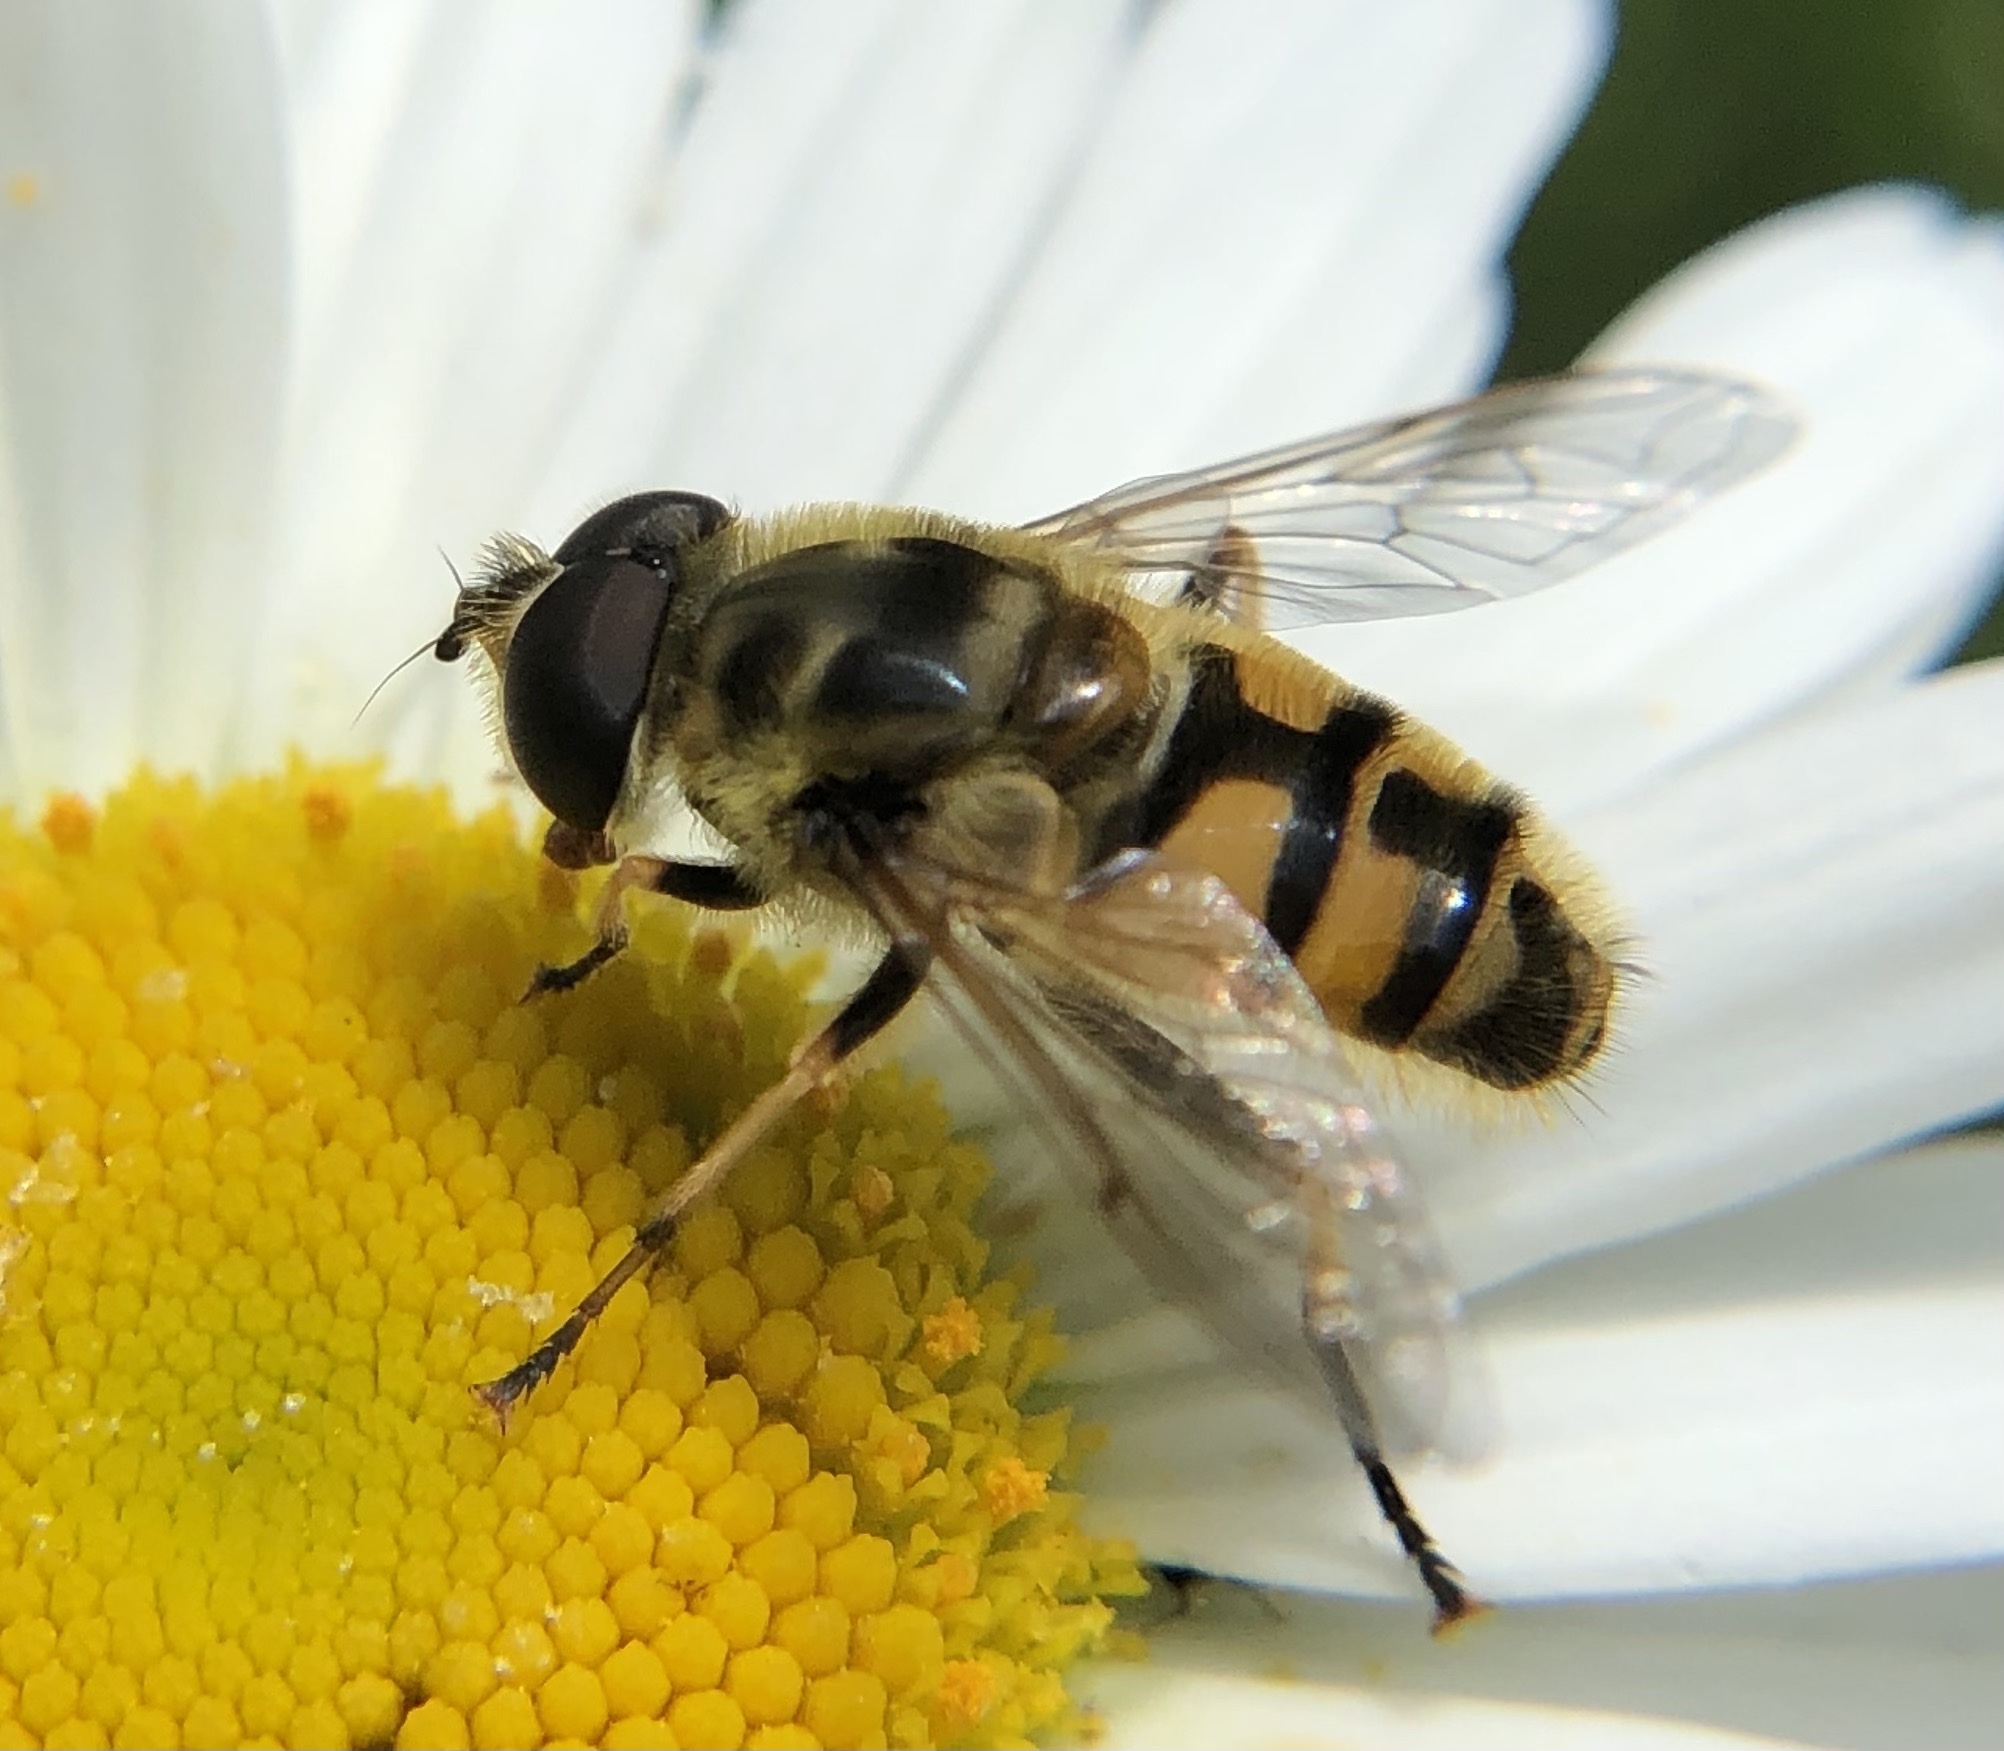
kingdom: Animalia
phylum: Arthropoda
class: Insecta
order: Diptera
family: Syrphidae
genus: Myathropa
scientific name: Myathropa florea
